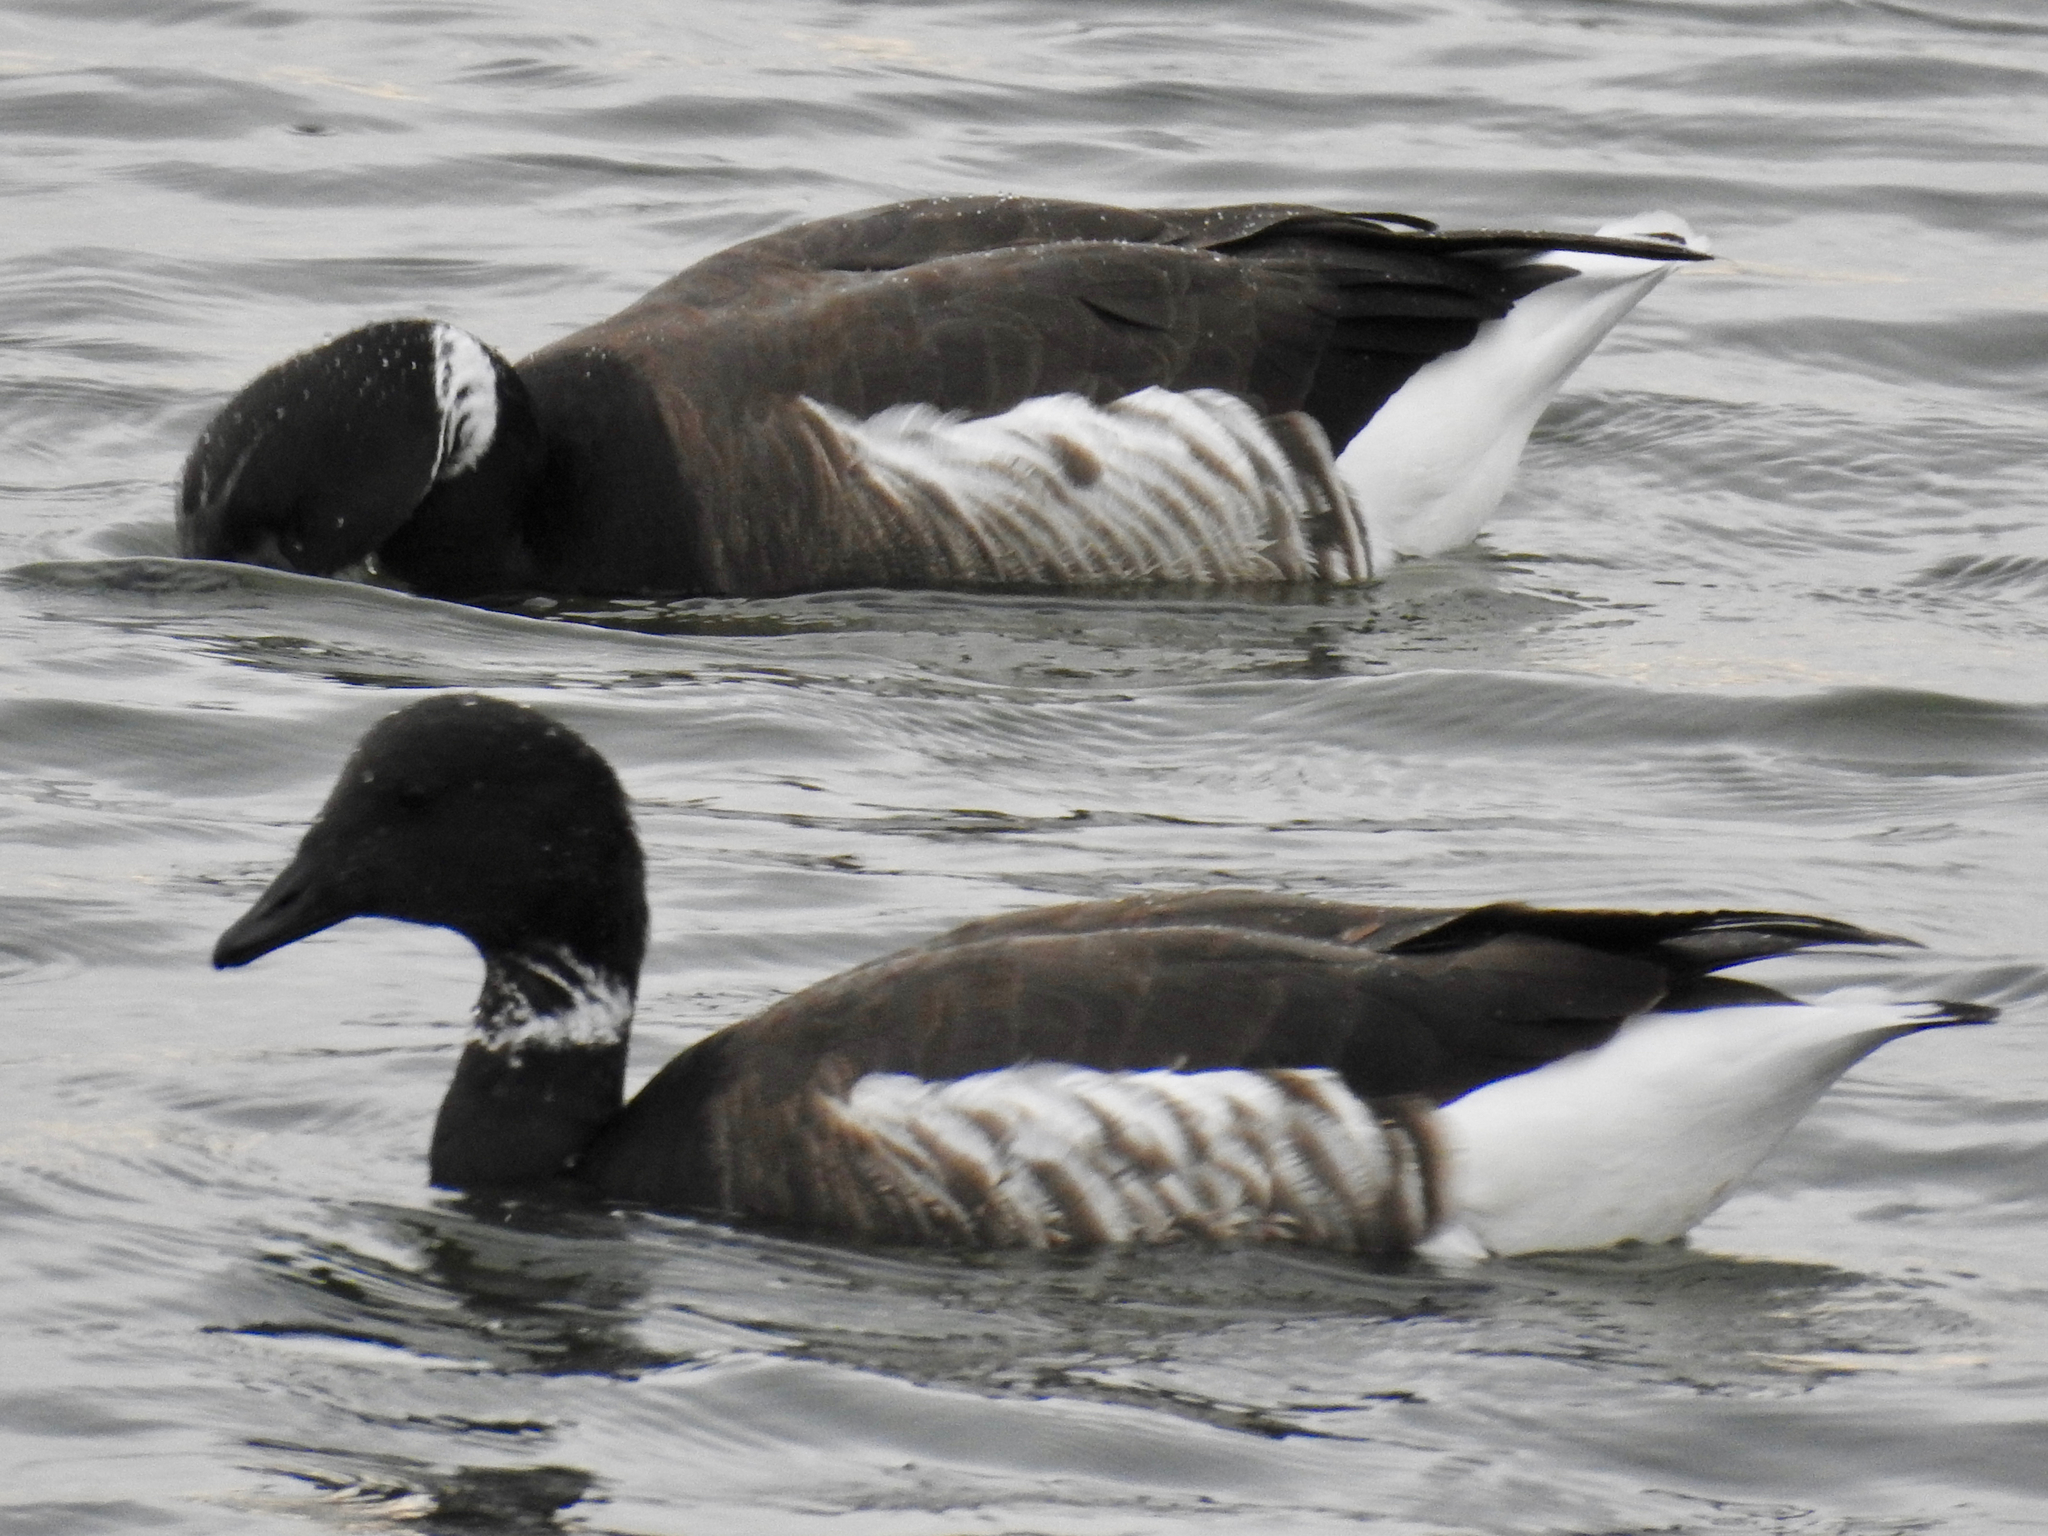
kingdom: Animalia
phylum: Chordata
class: Aves
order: Anseriformes
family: Anatidae
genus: Branta
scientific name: Branta bernicla
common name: Brant goose
